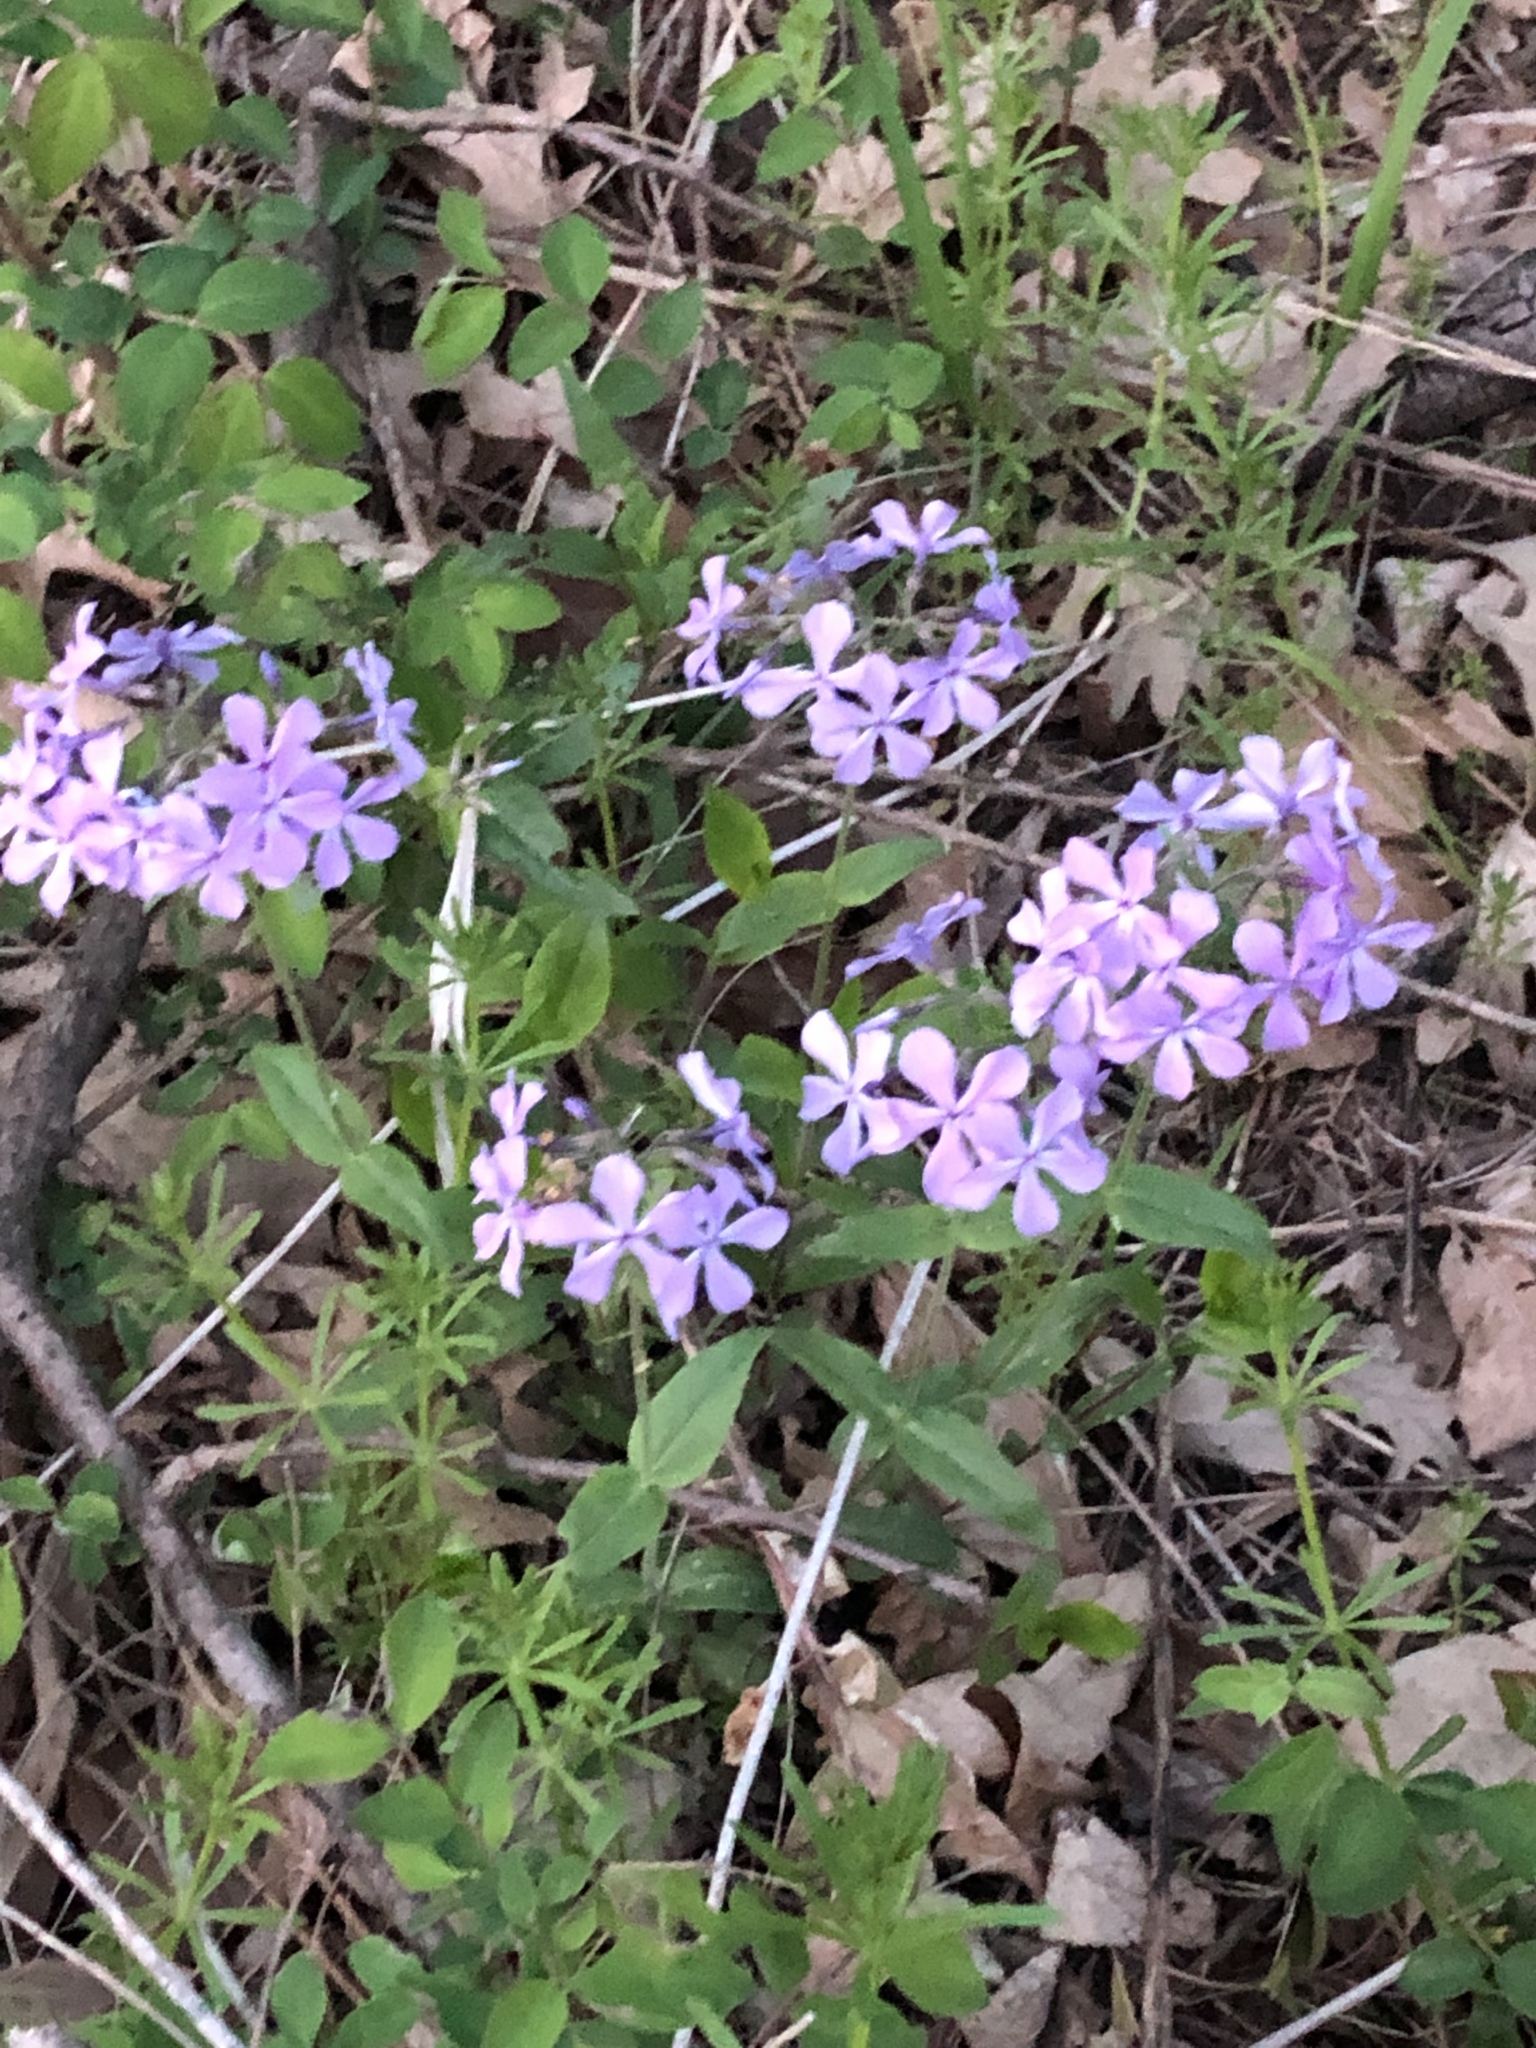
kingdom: Plantae
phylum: Tracheophyta
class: Magnoliopsida
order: Ericales
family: Polemoniaceae
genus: Phlox
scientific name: Phlox divaricata
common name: Blue phlox
